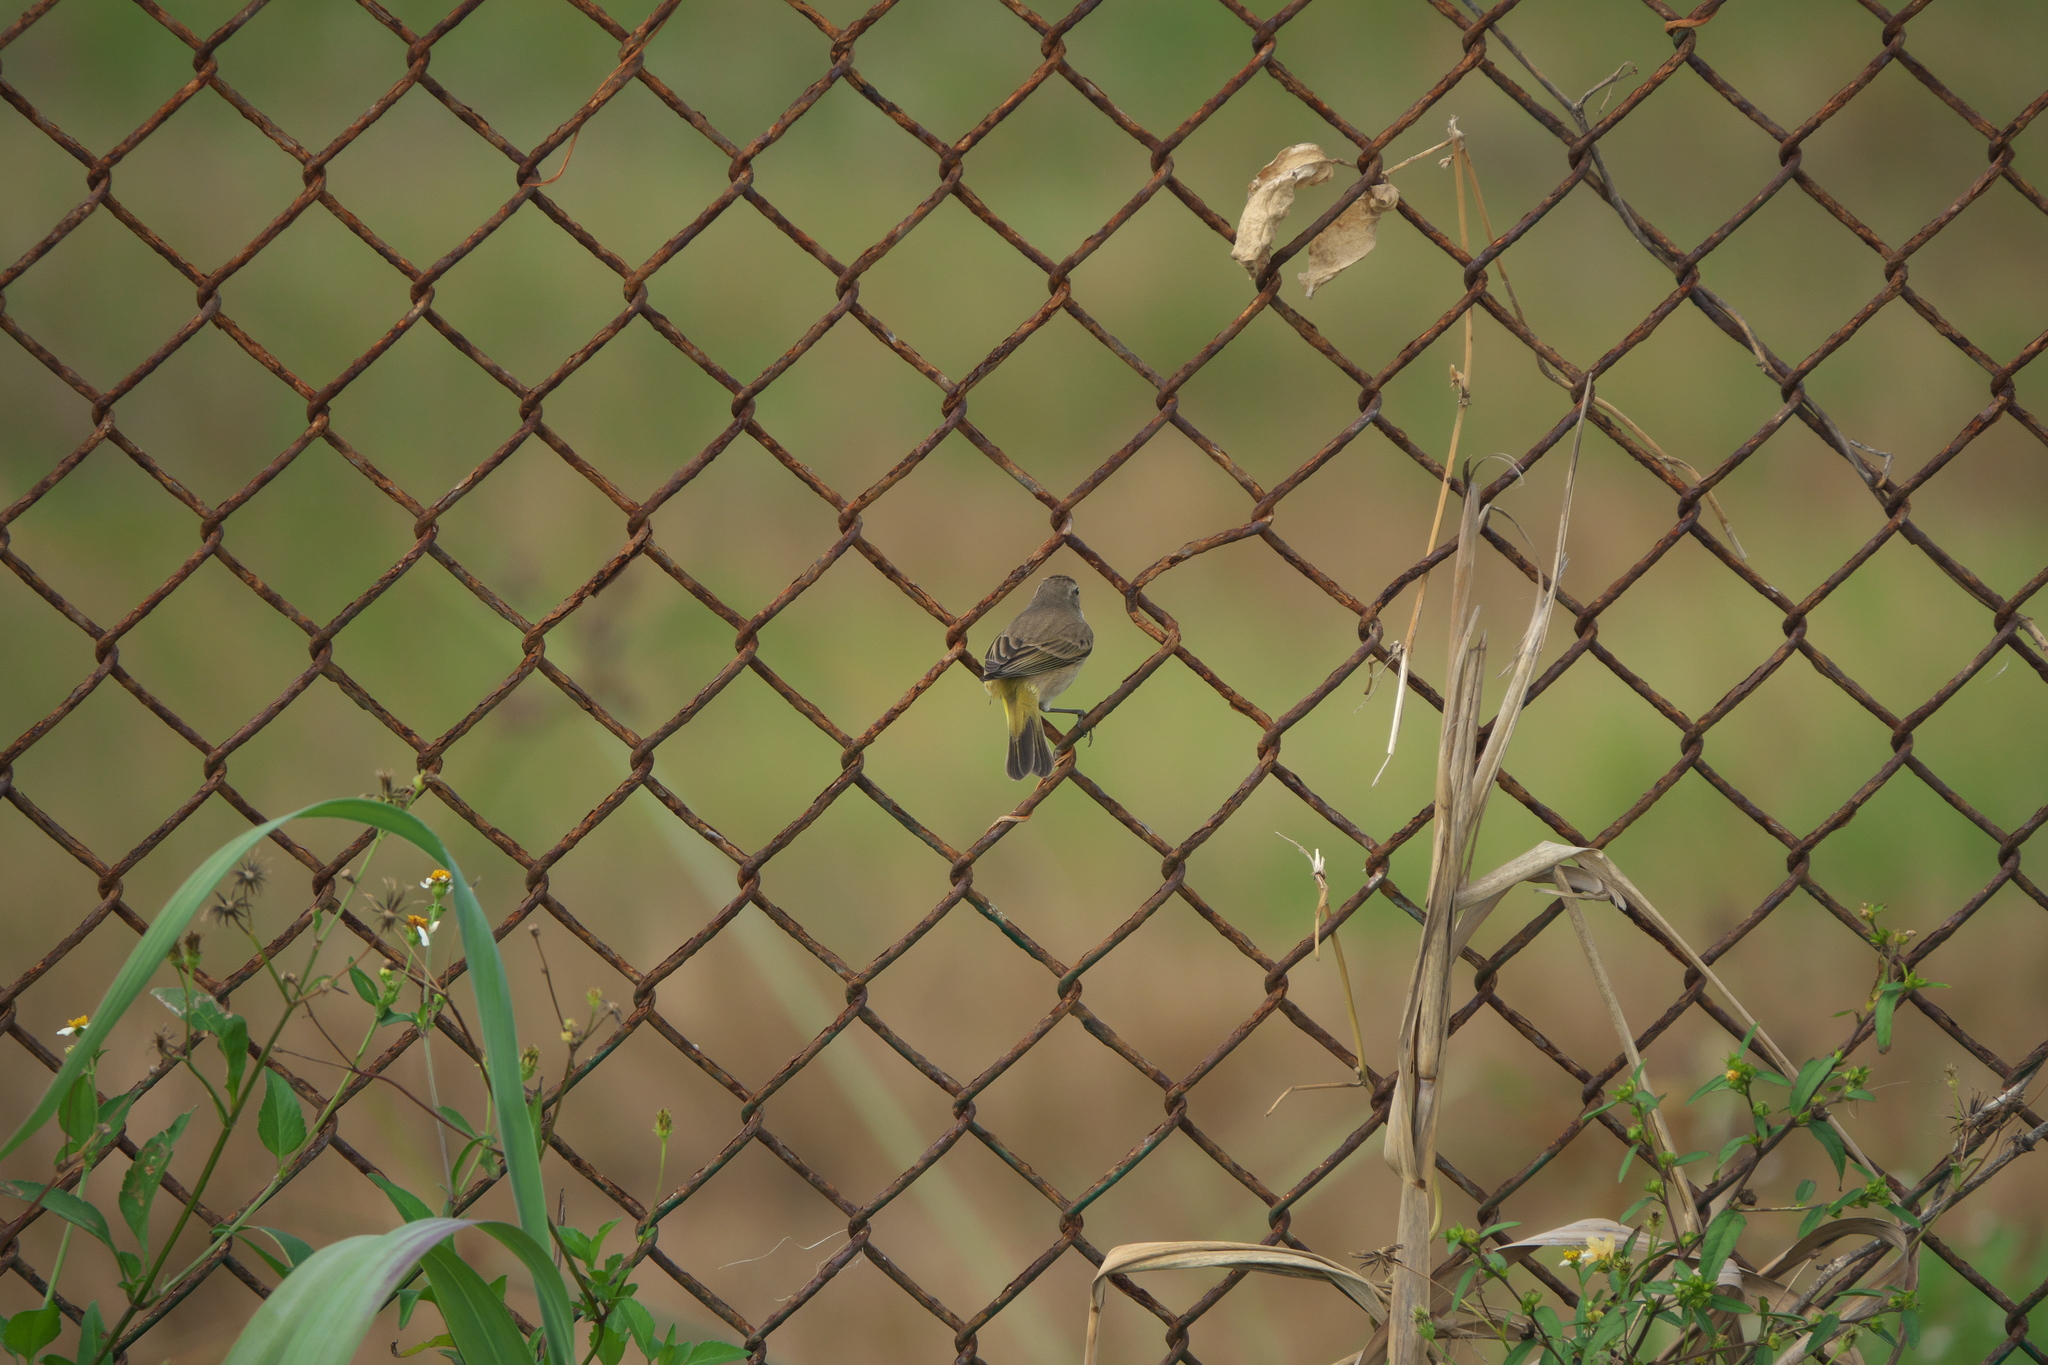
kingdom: Animalia
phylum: Chordata
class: Aves
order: Passeriformes
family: Parulidae
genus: Setophaga
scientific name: Setophaga palmarum
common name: Palm warbler
